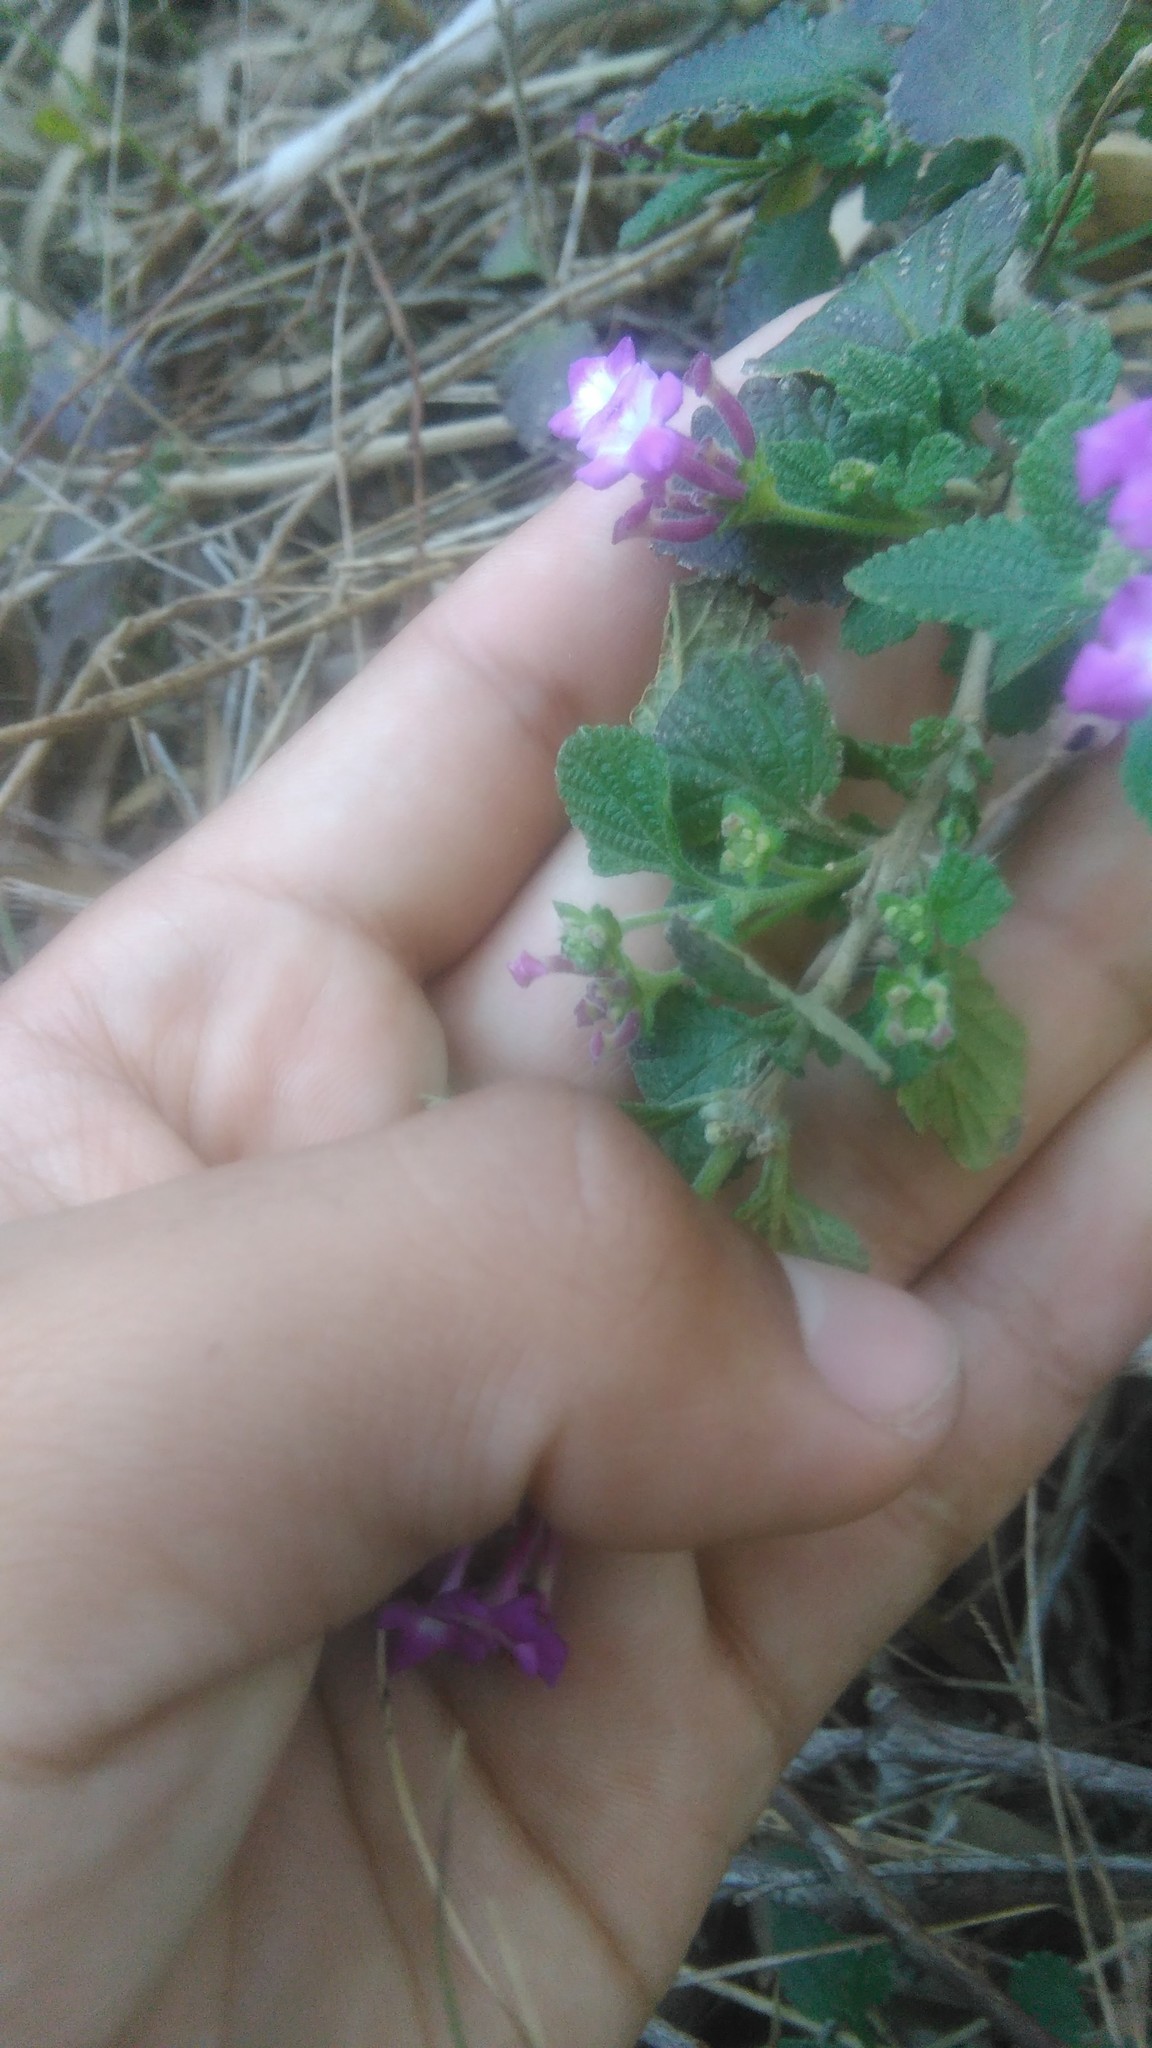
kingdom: Plantae
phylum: Tracheophyta
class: Magnoliopsida
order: Lamiales
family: Verbenaceae
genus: Lantana
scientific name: Lantana montevidensis
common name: Trailing shrubverbena
